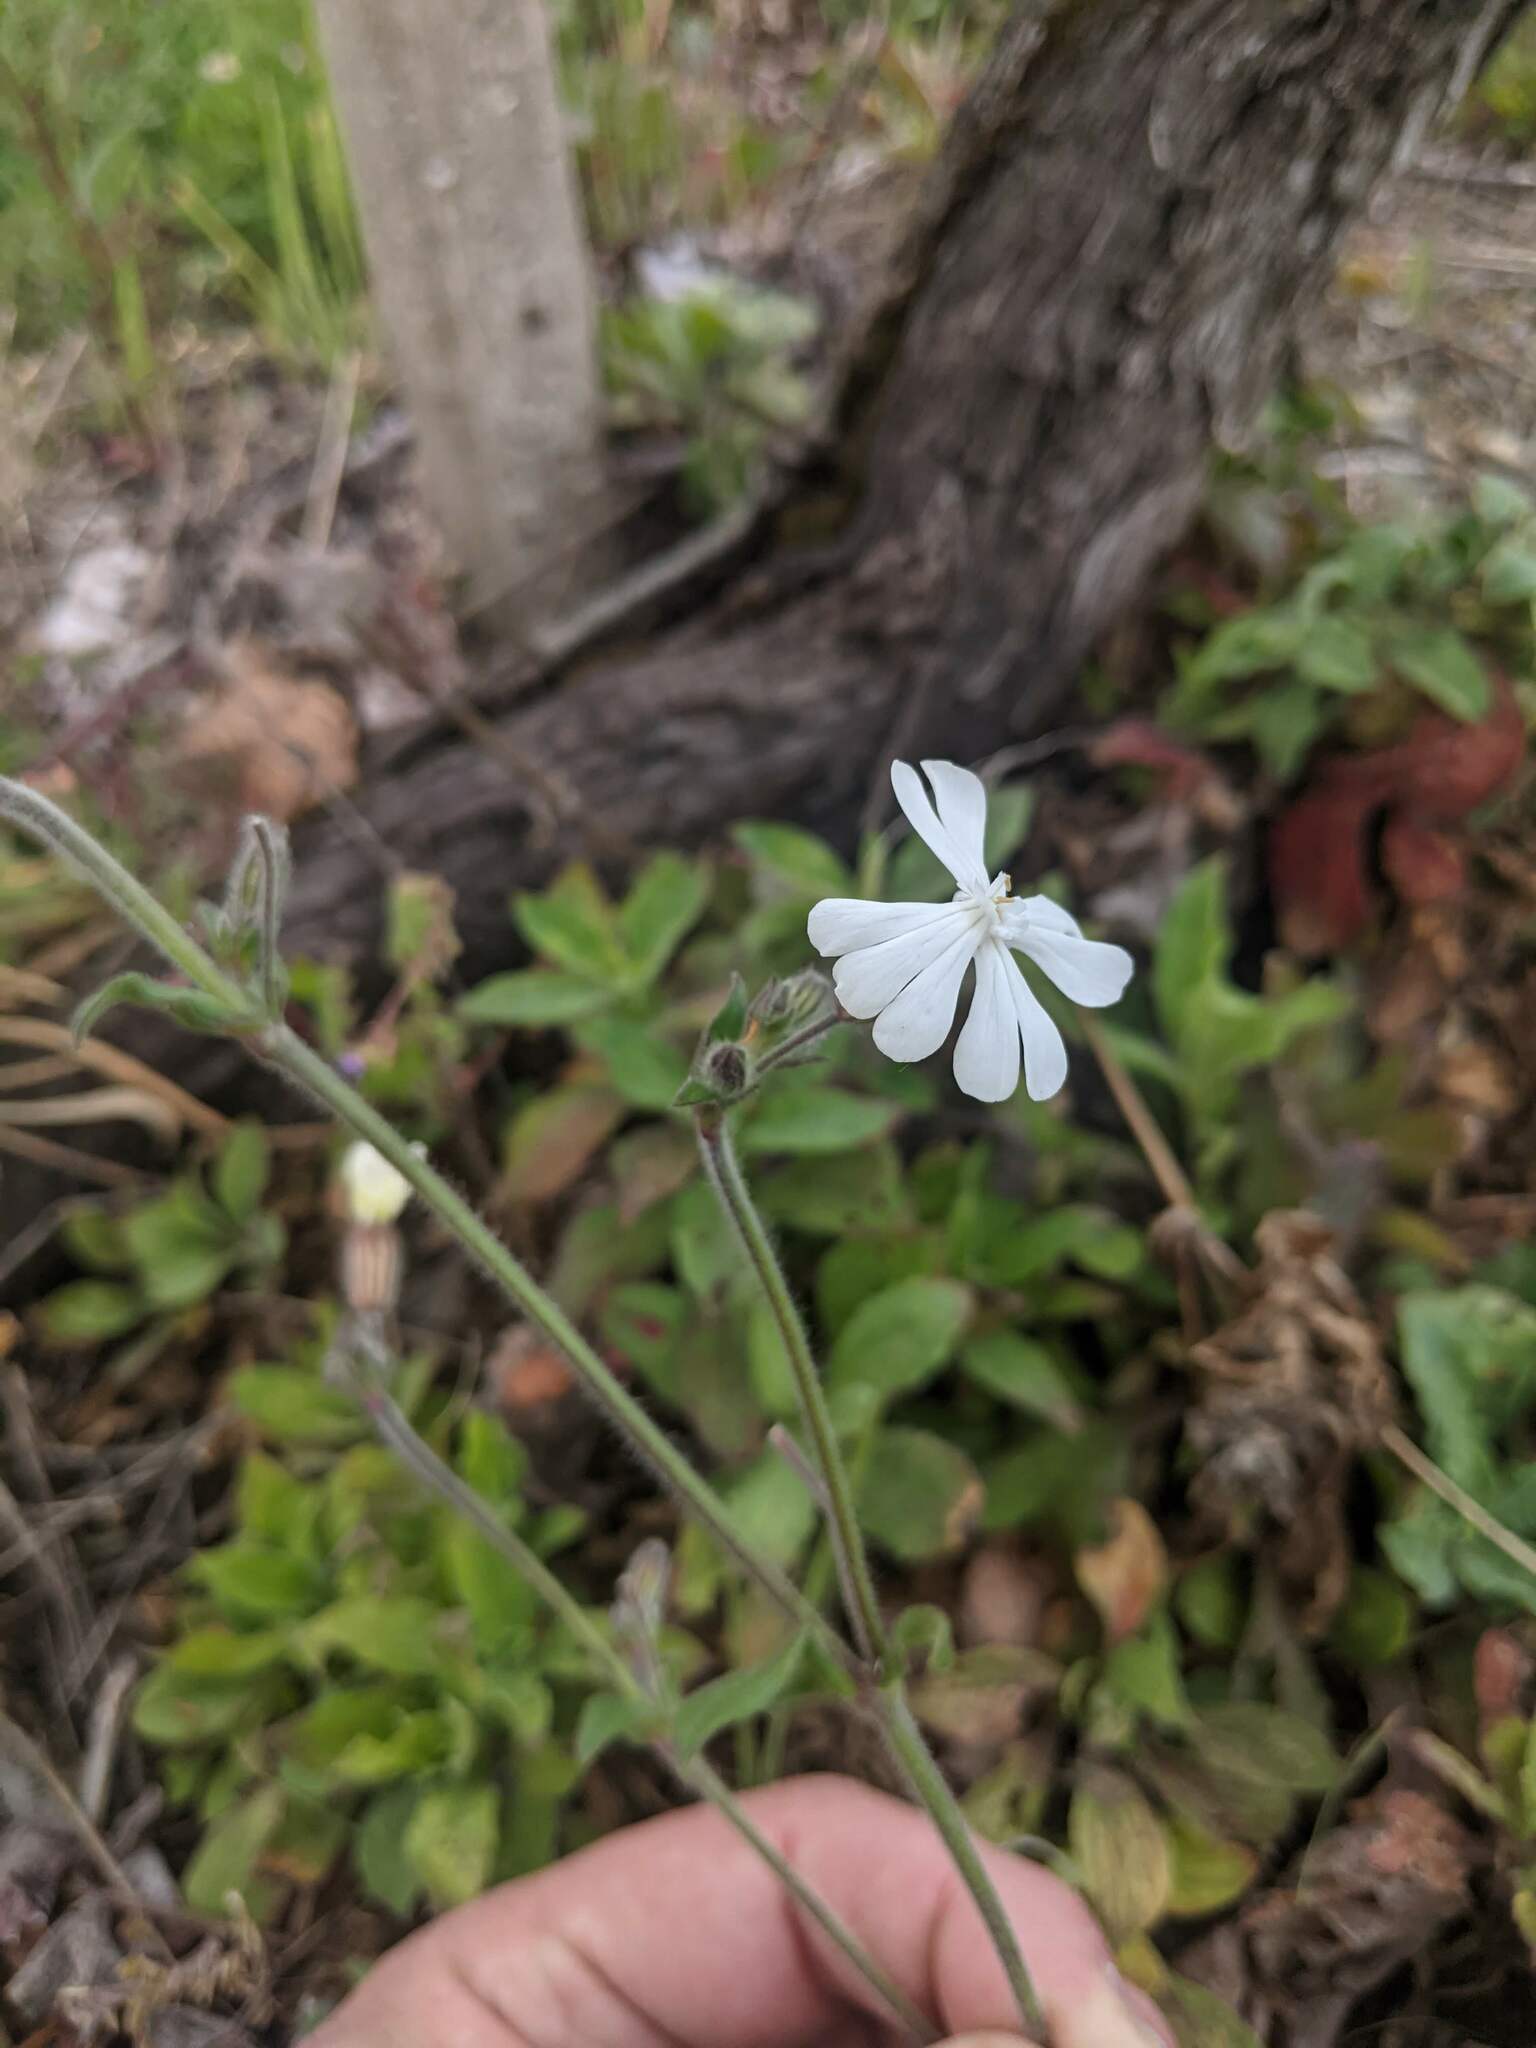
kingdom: Plantae
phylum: Tracheophyta
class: Magnoliopsida
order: Caryophyllales
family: Caryophyllaceae
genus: Silene
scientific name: Silene latifolia
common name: White campion
